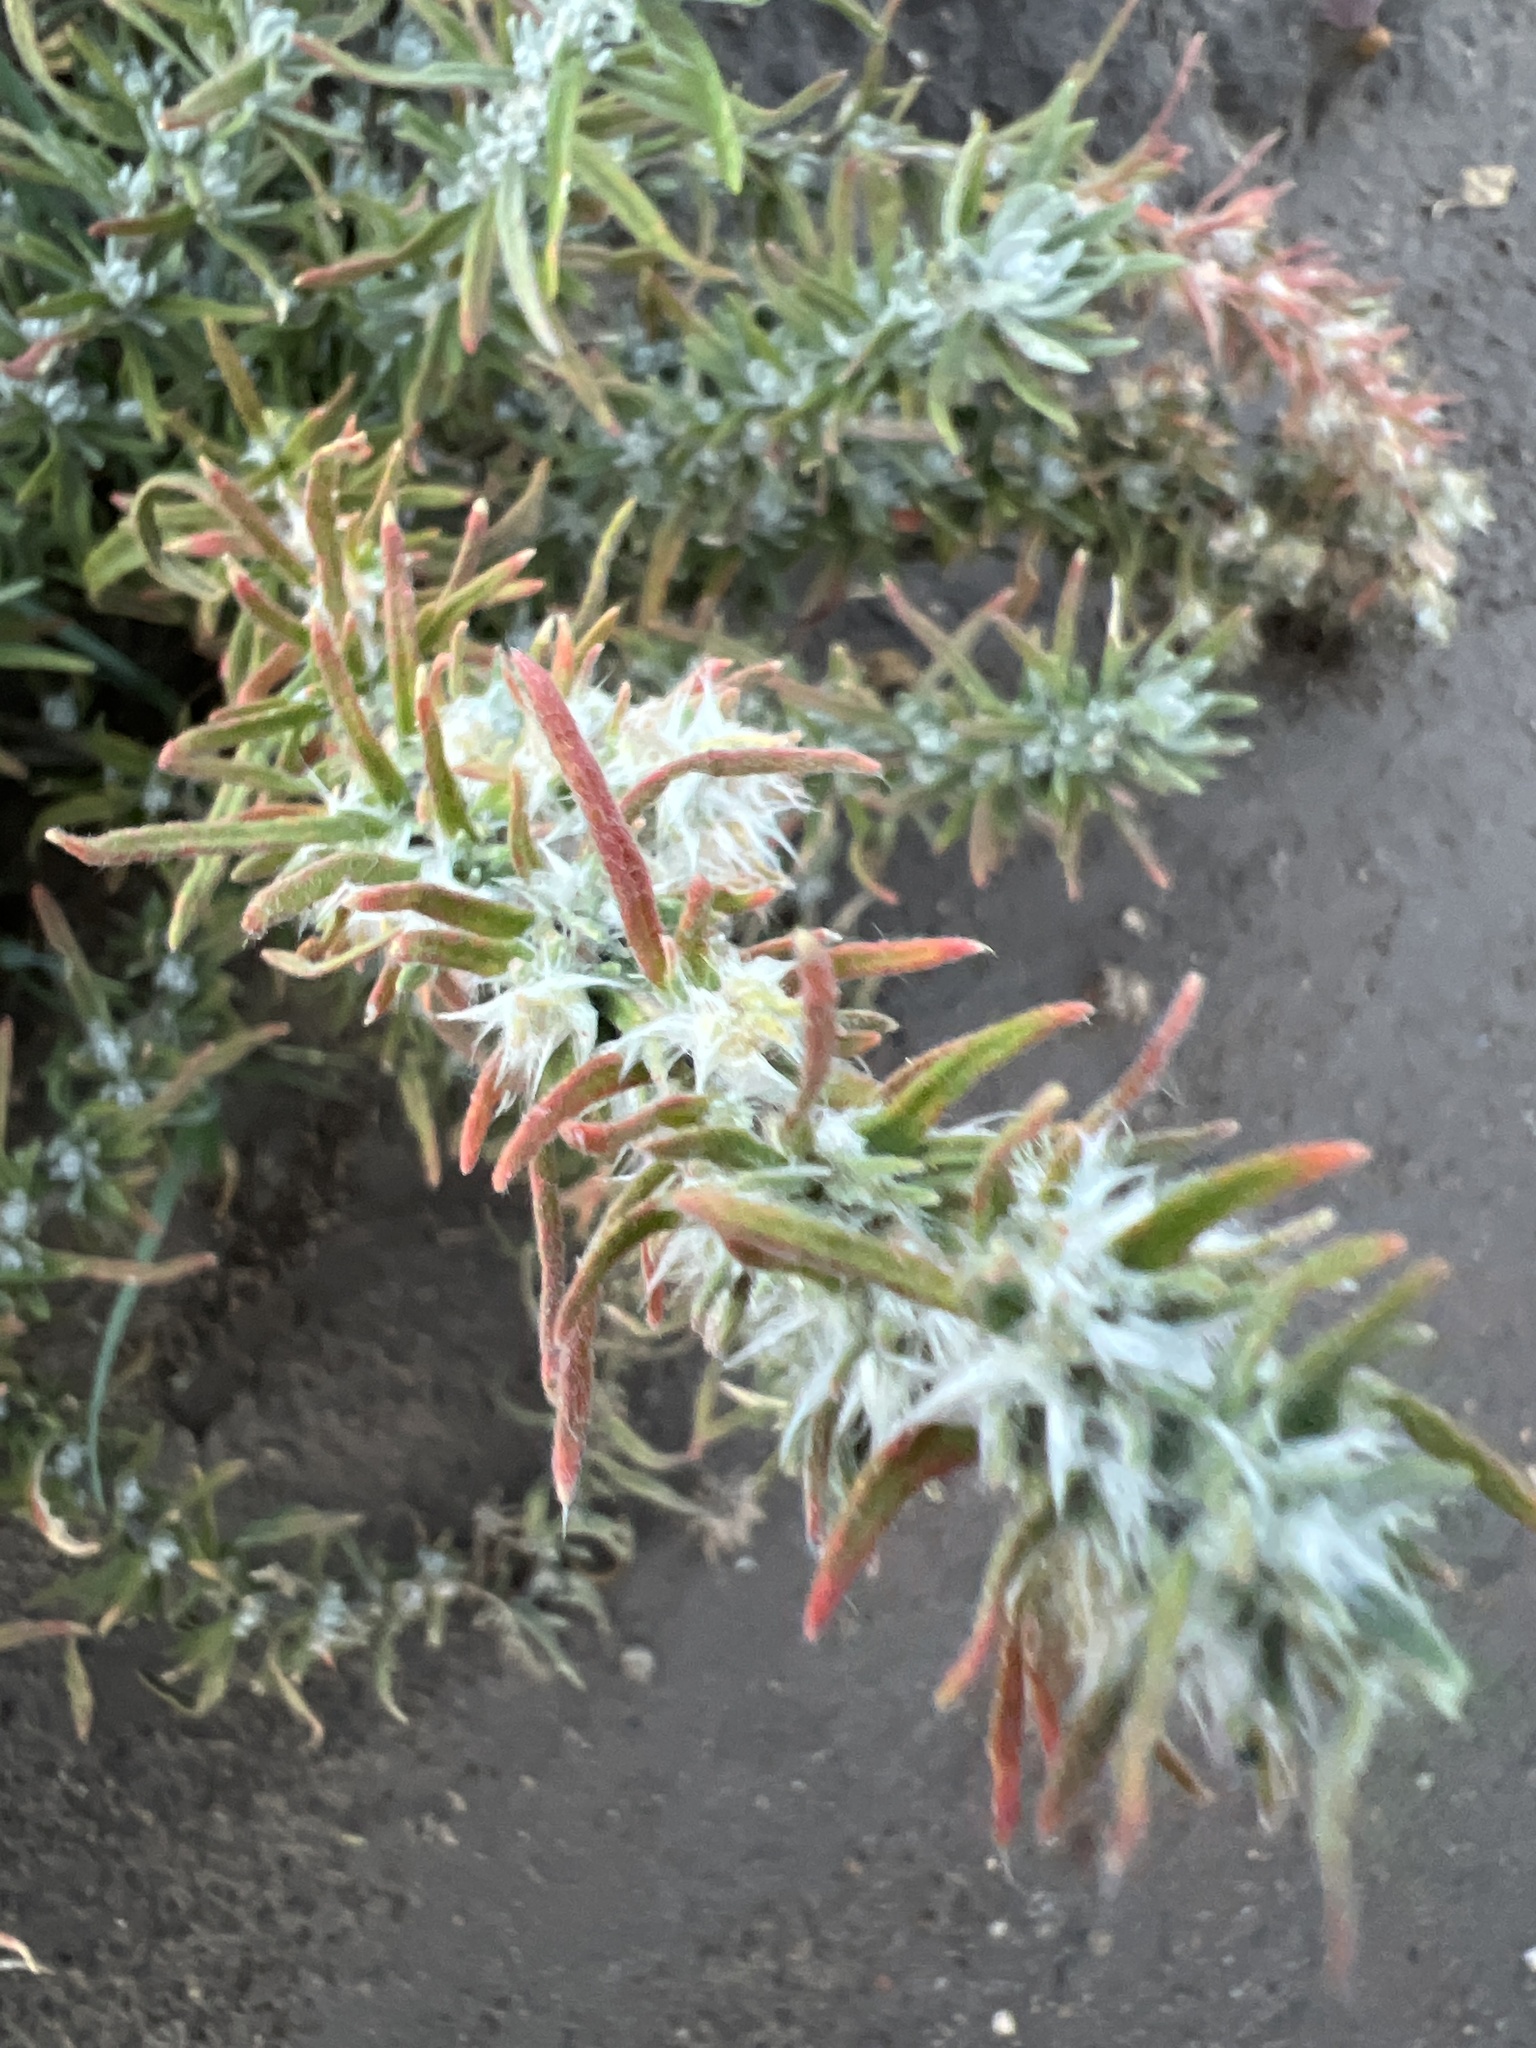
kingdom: Plantae
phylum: Tracheophyta
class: Magnoliopsida
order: Caryophyllales
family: Amaranthaceae
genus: Krascheninnikovia
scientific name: Krascheninnikovia lanata
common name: Winterfat
